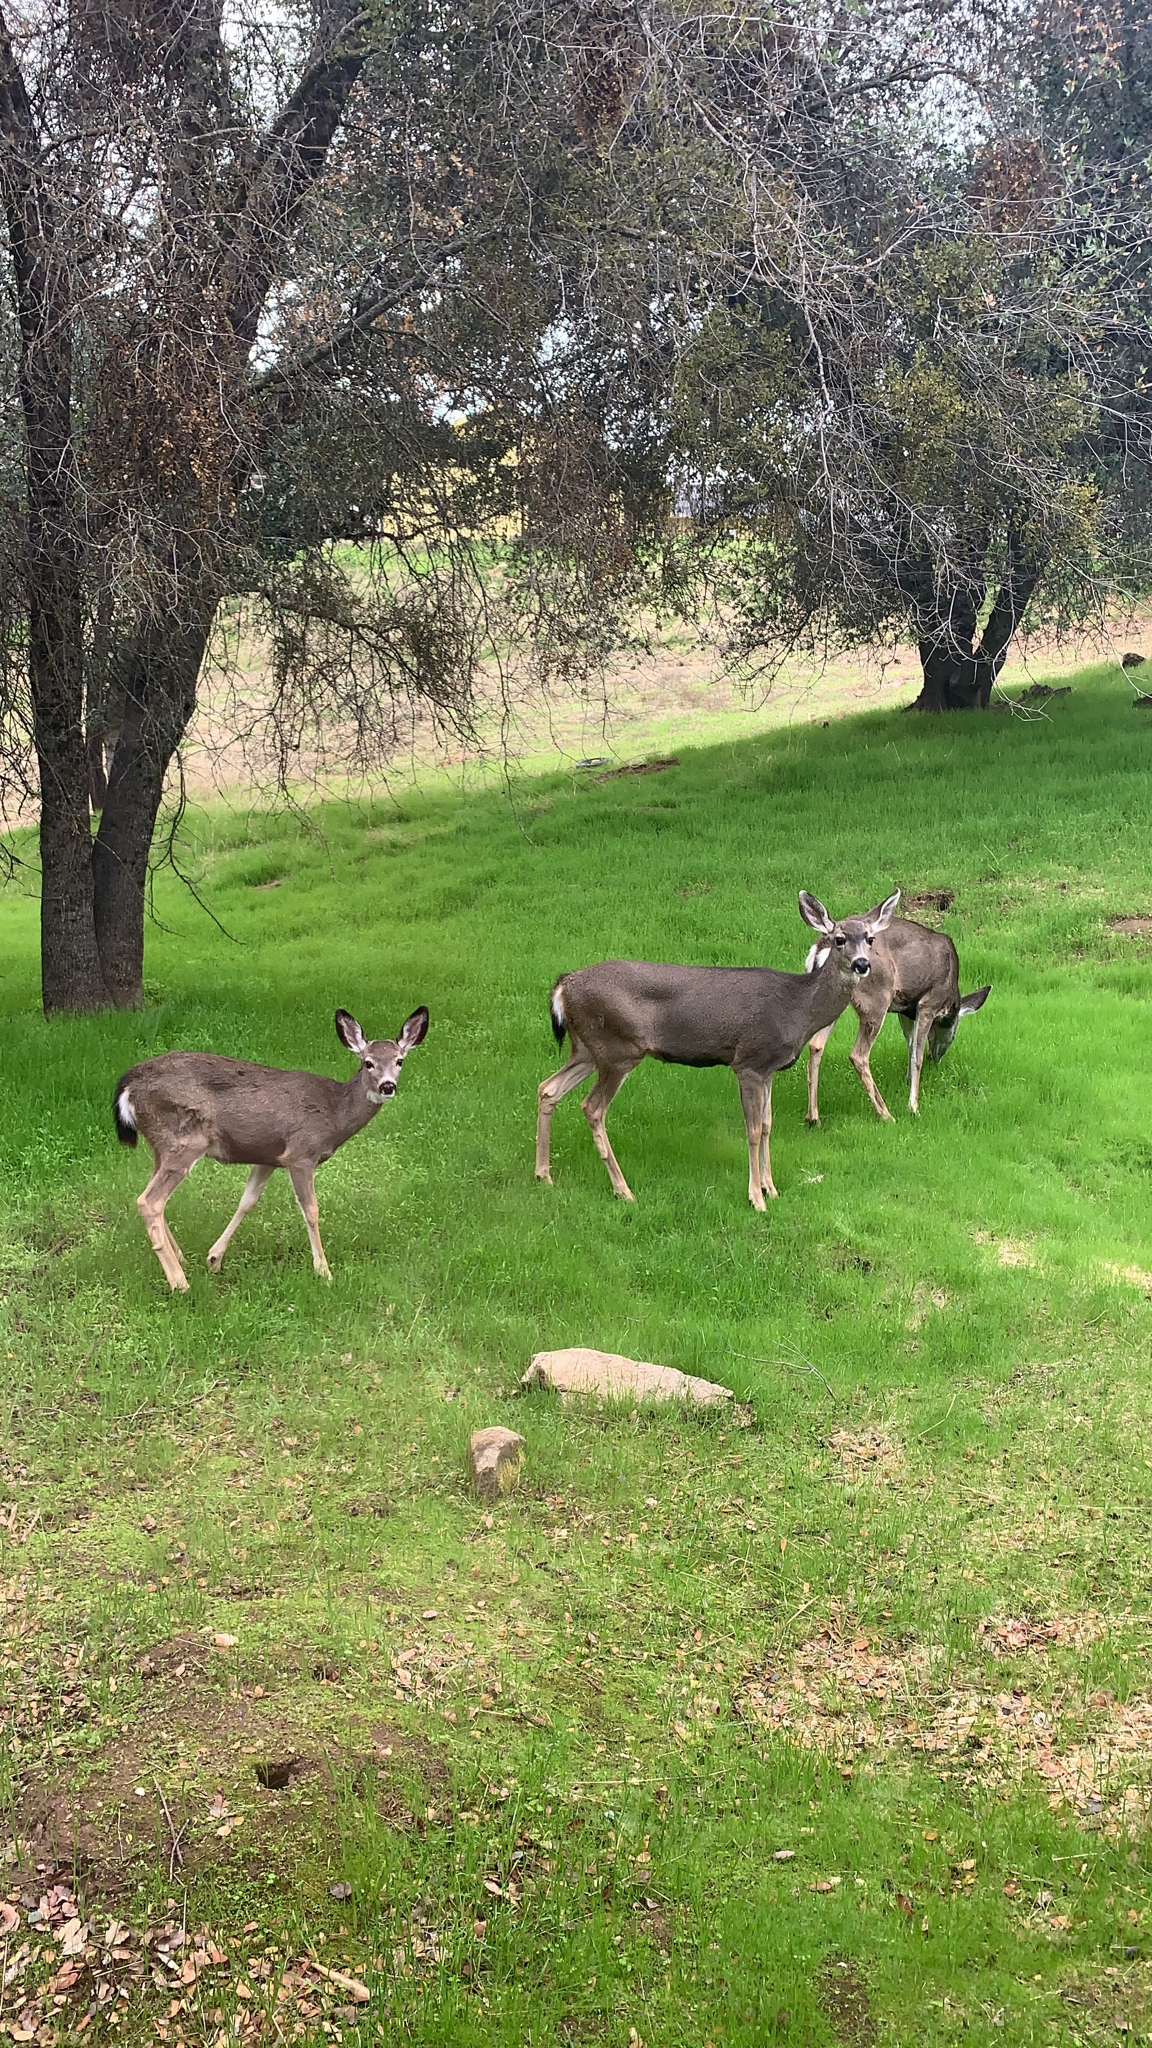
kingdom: Animalia
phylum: Chordata
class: Mammalia
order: Artiodactyla
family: Cervidae
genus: Odocoileus
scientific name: Odocoileus hemionus
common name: Mule deer
